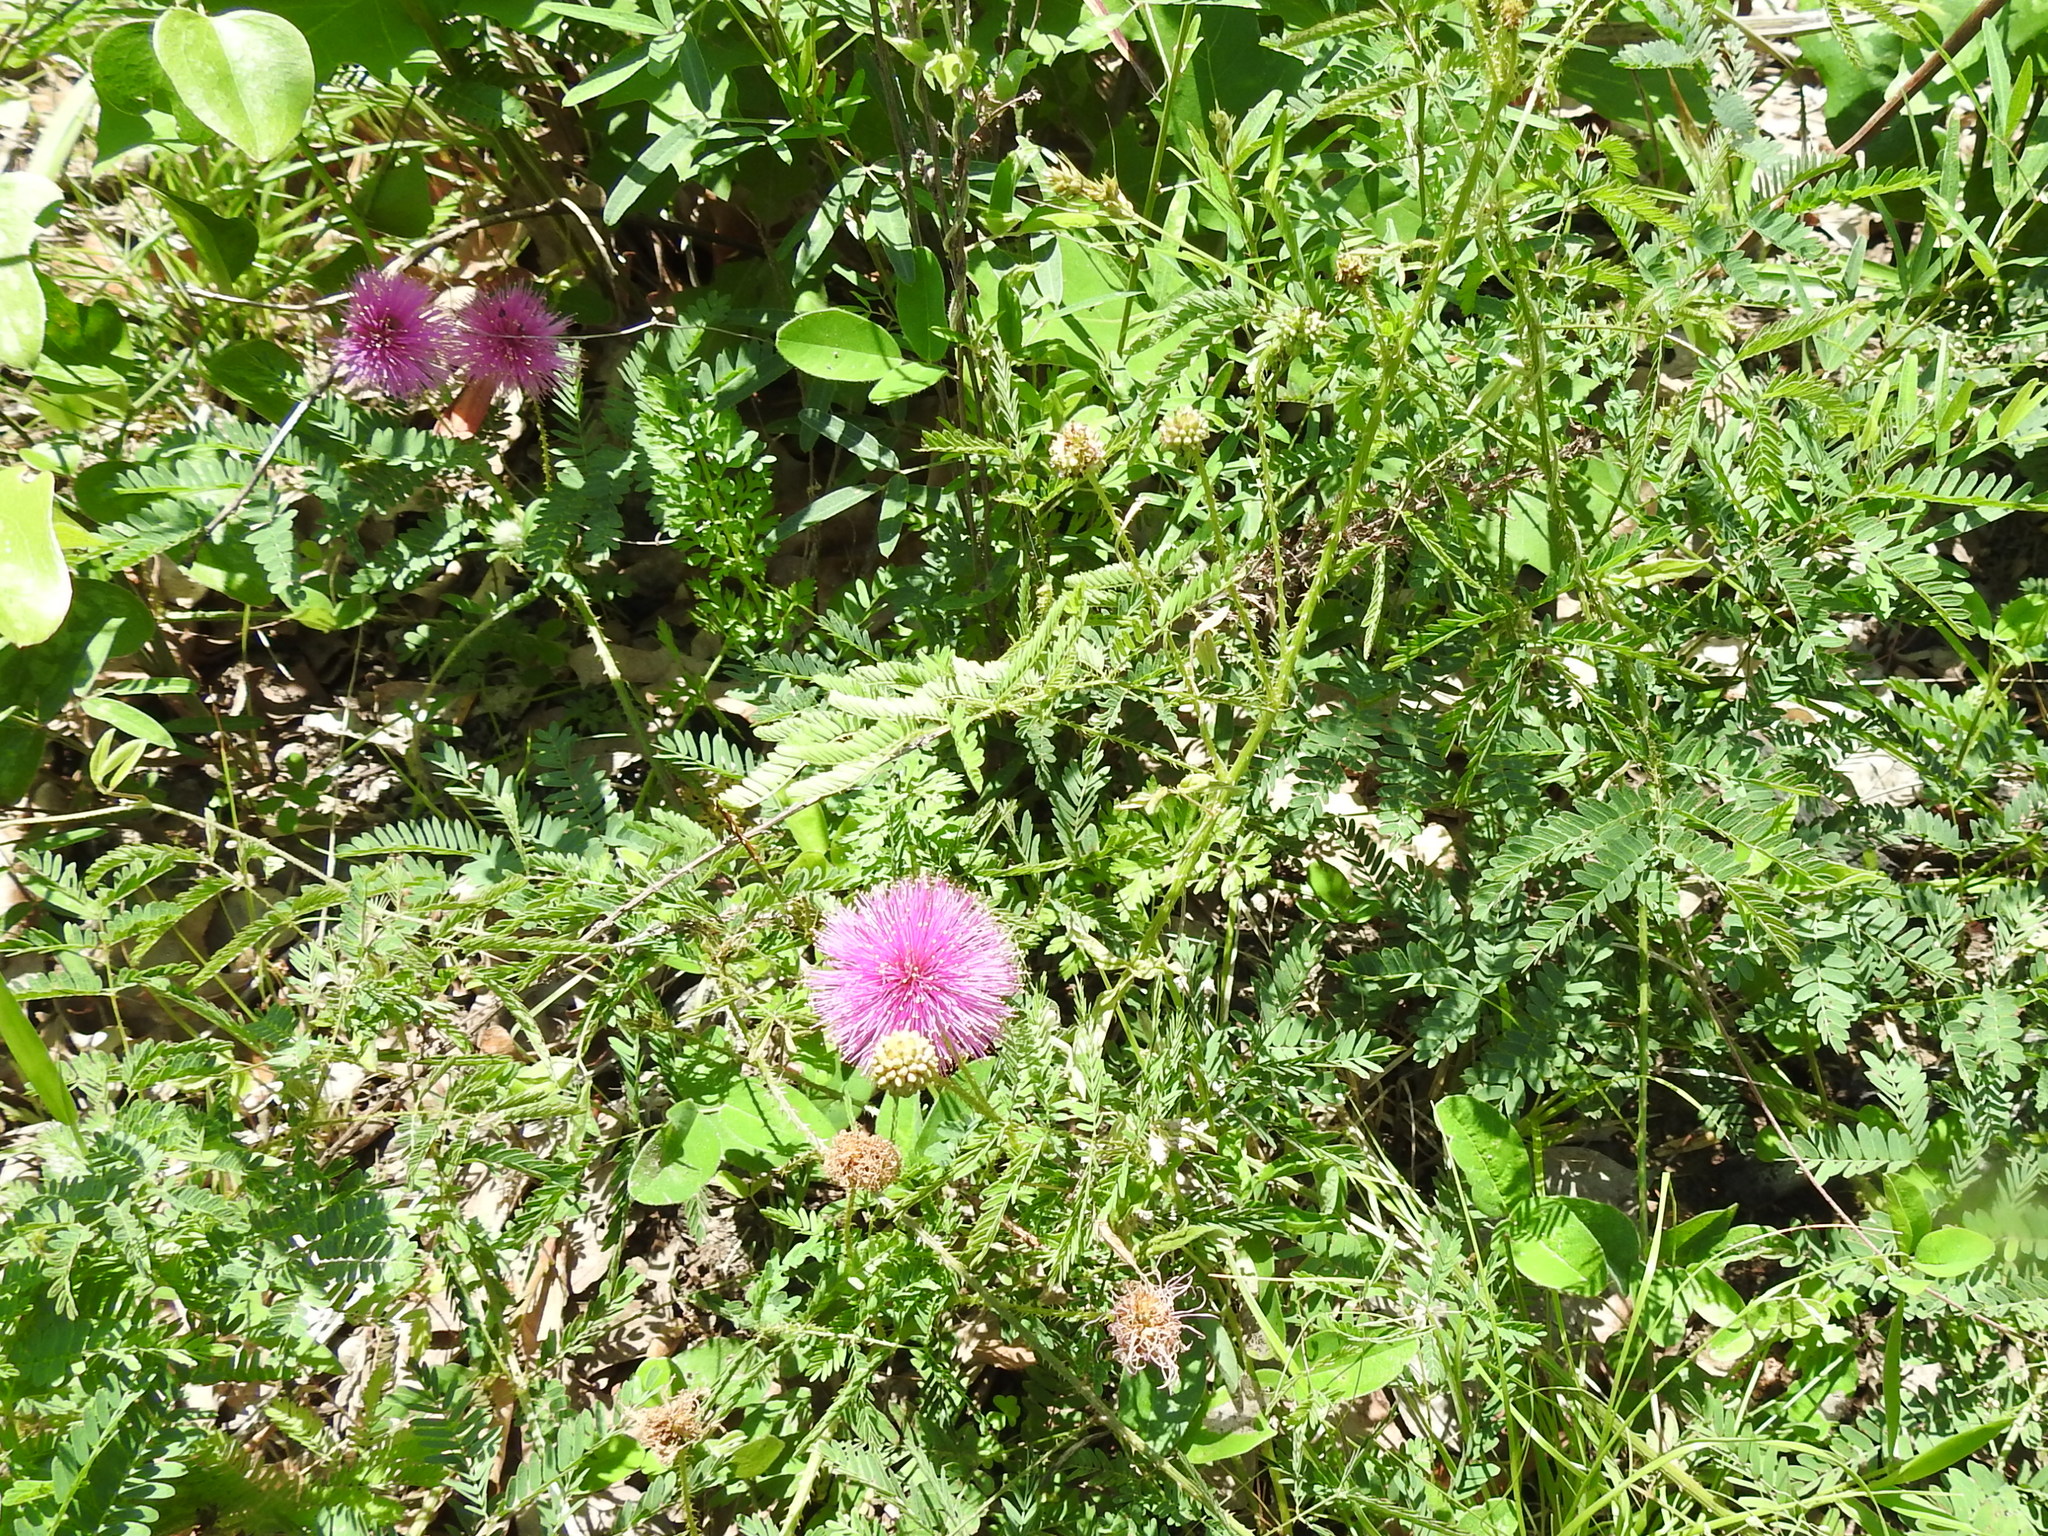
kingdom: Plantae
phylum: Tracheophyta
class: Magnoliopsida
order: Fabales
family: Fabaceae
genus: Mimosa
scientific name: Mimosa hystricina
